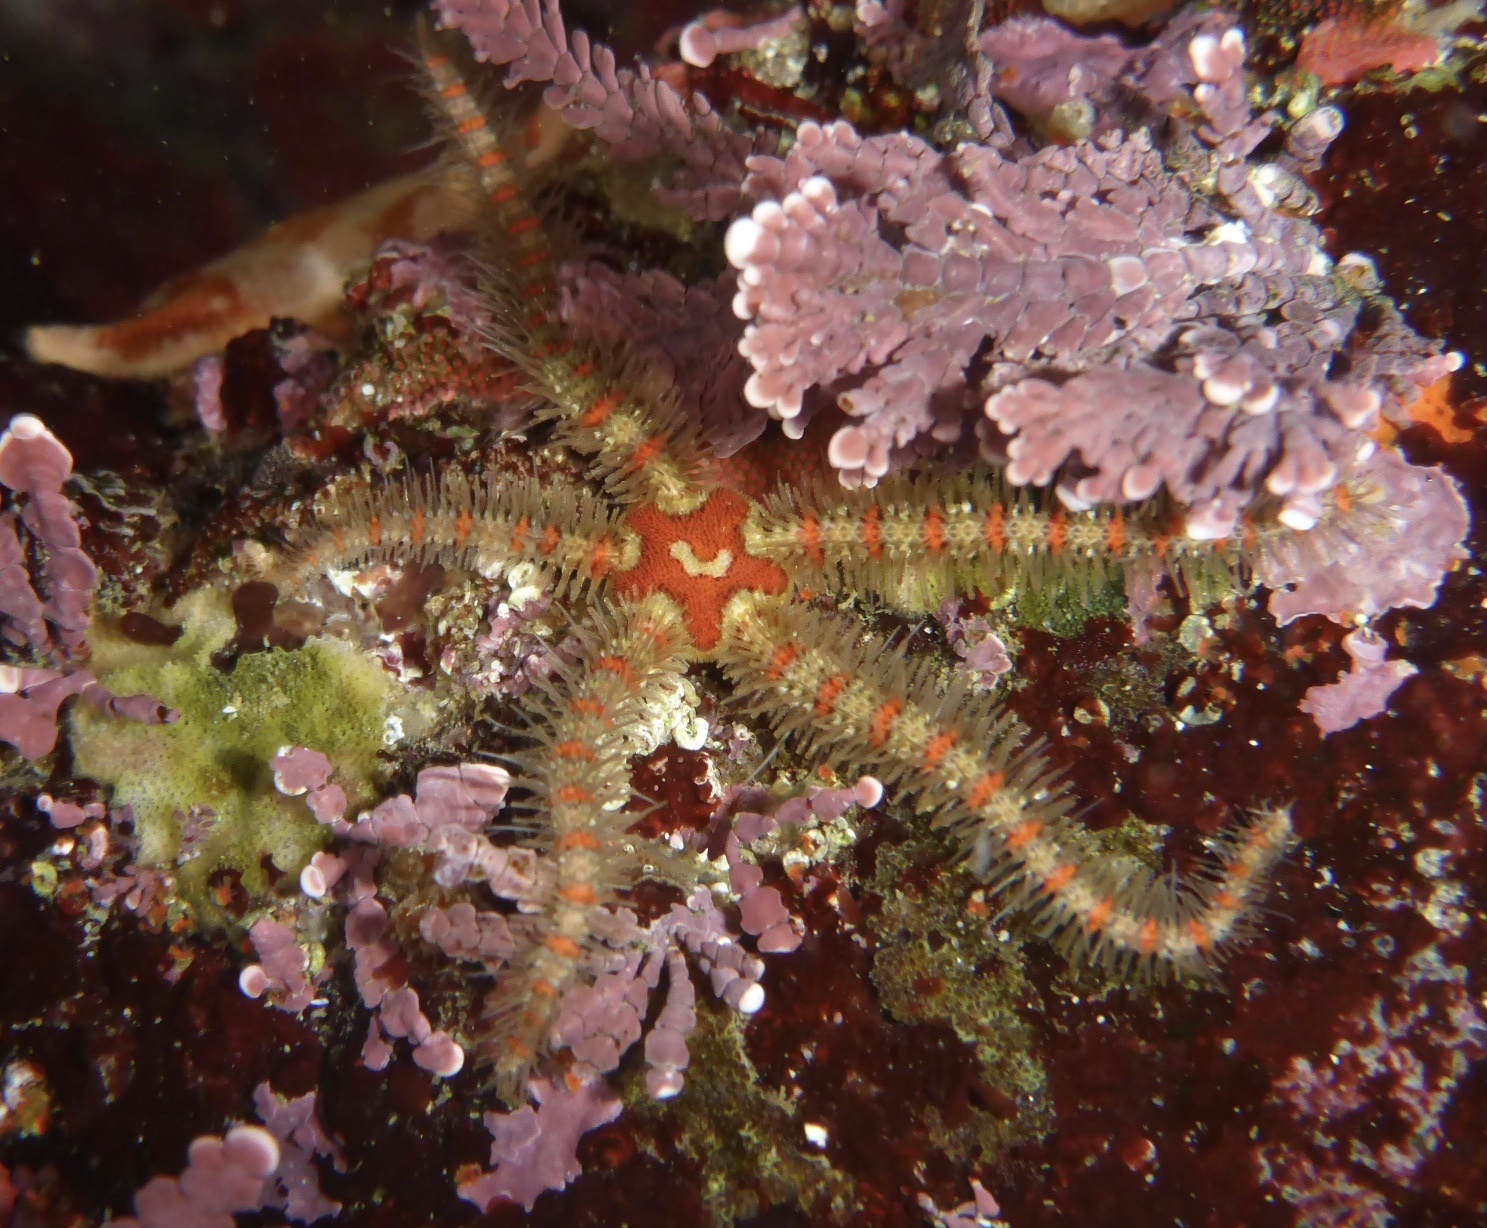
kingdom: Animalia
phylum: Echinodermata
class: Ophiuroidea
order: Amphilepidida
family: Ophiotrichidae
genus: Ophiothrix
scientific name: Ophiothrix spiculata
